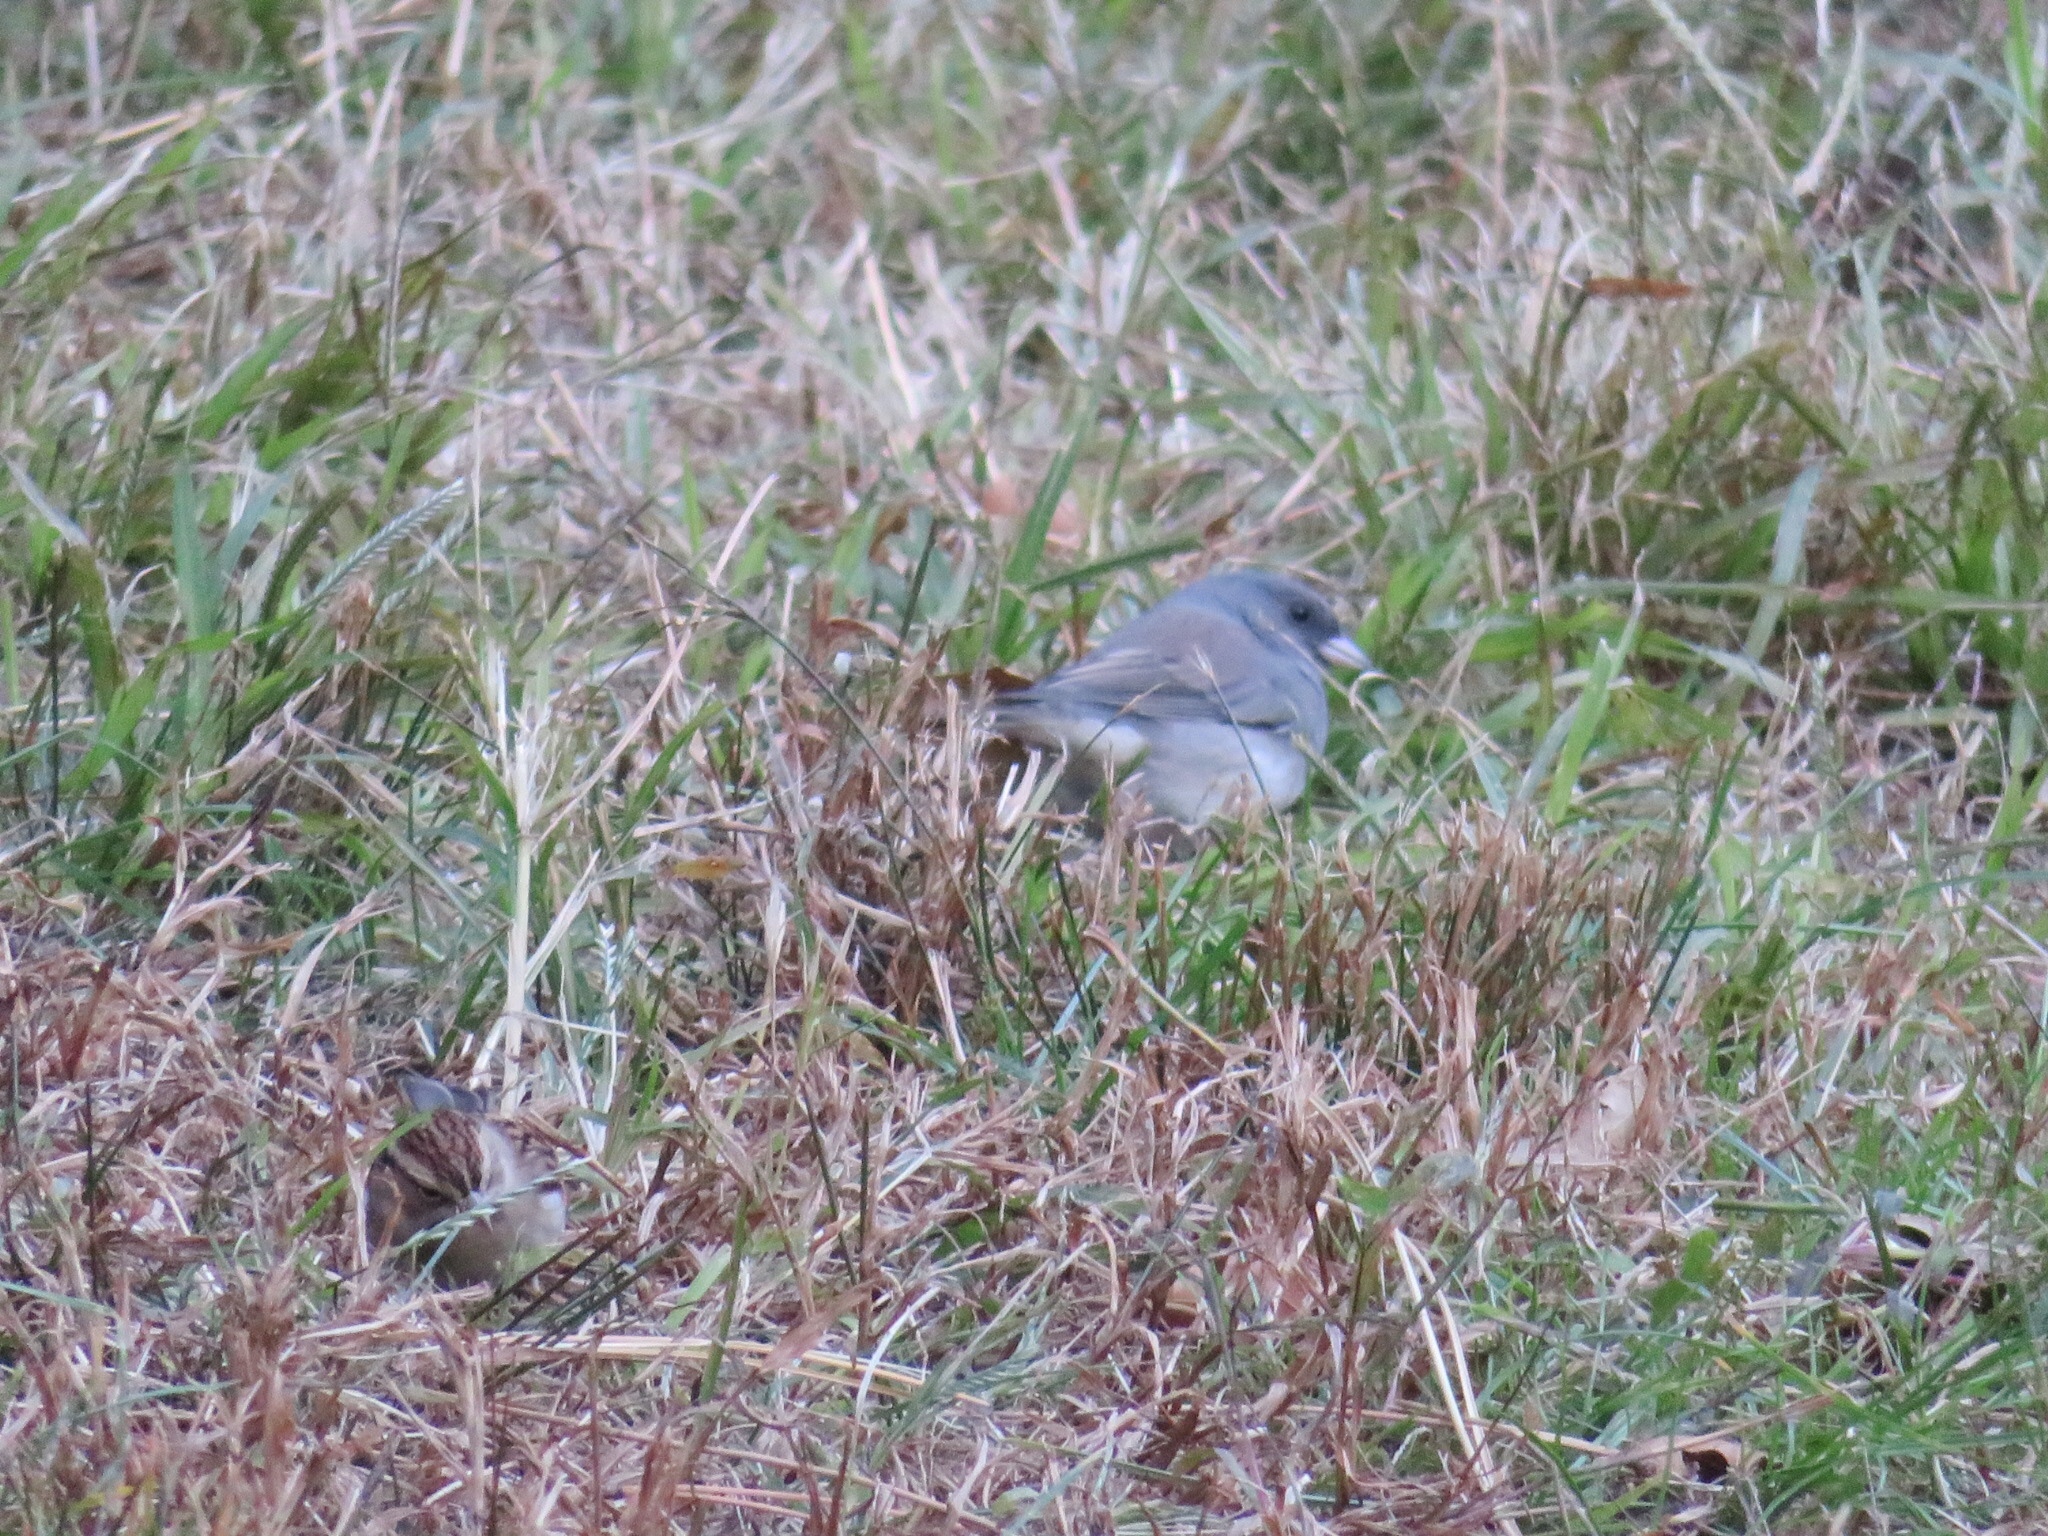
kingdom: Animalia
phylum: Chordata
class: Aves
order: Passeriformes
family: Passerellidae
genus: Junco
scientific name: Junco hyemalis
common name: Dark-eyed junco
